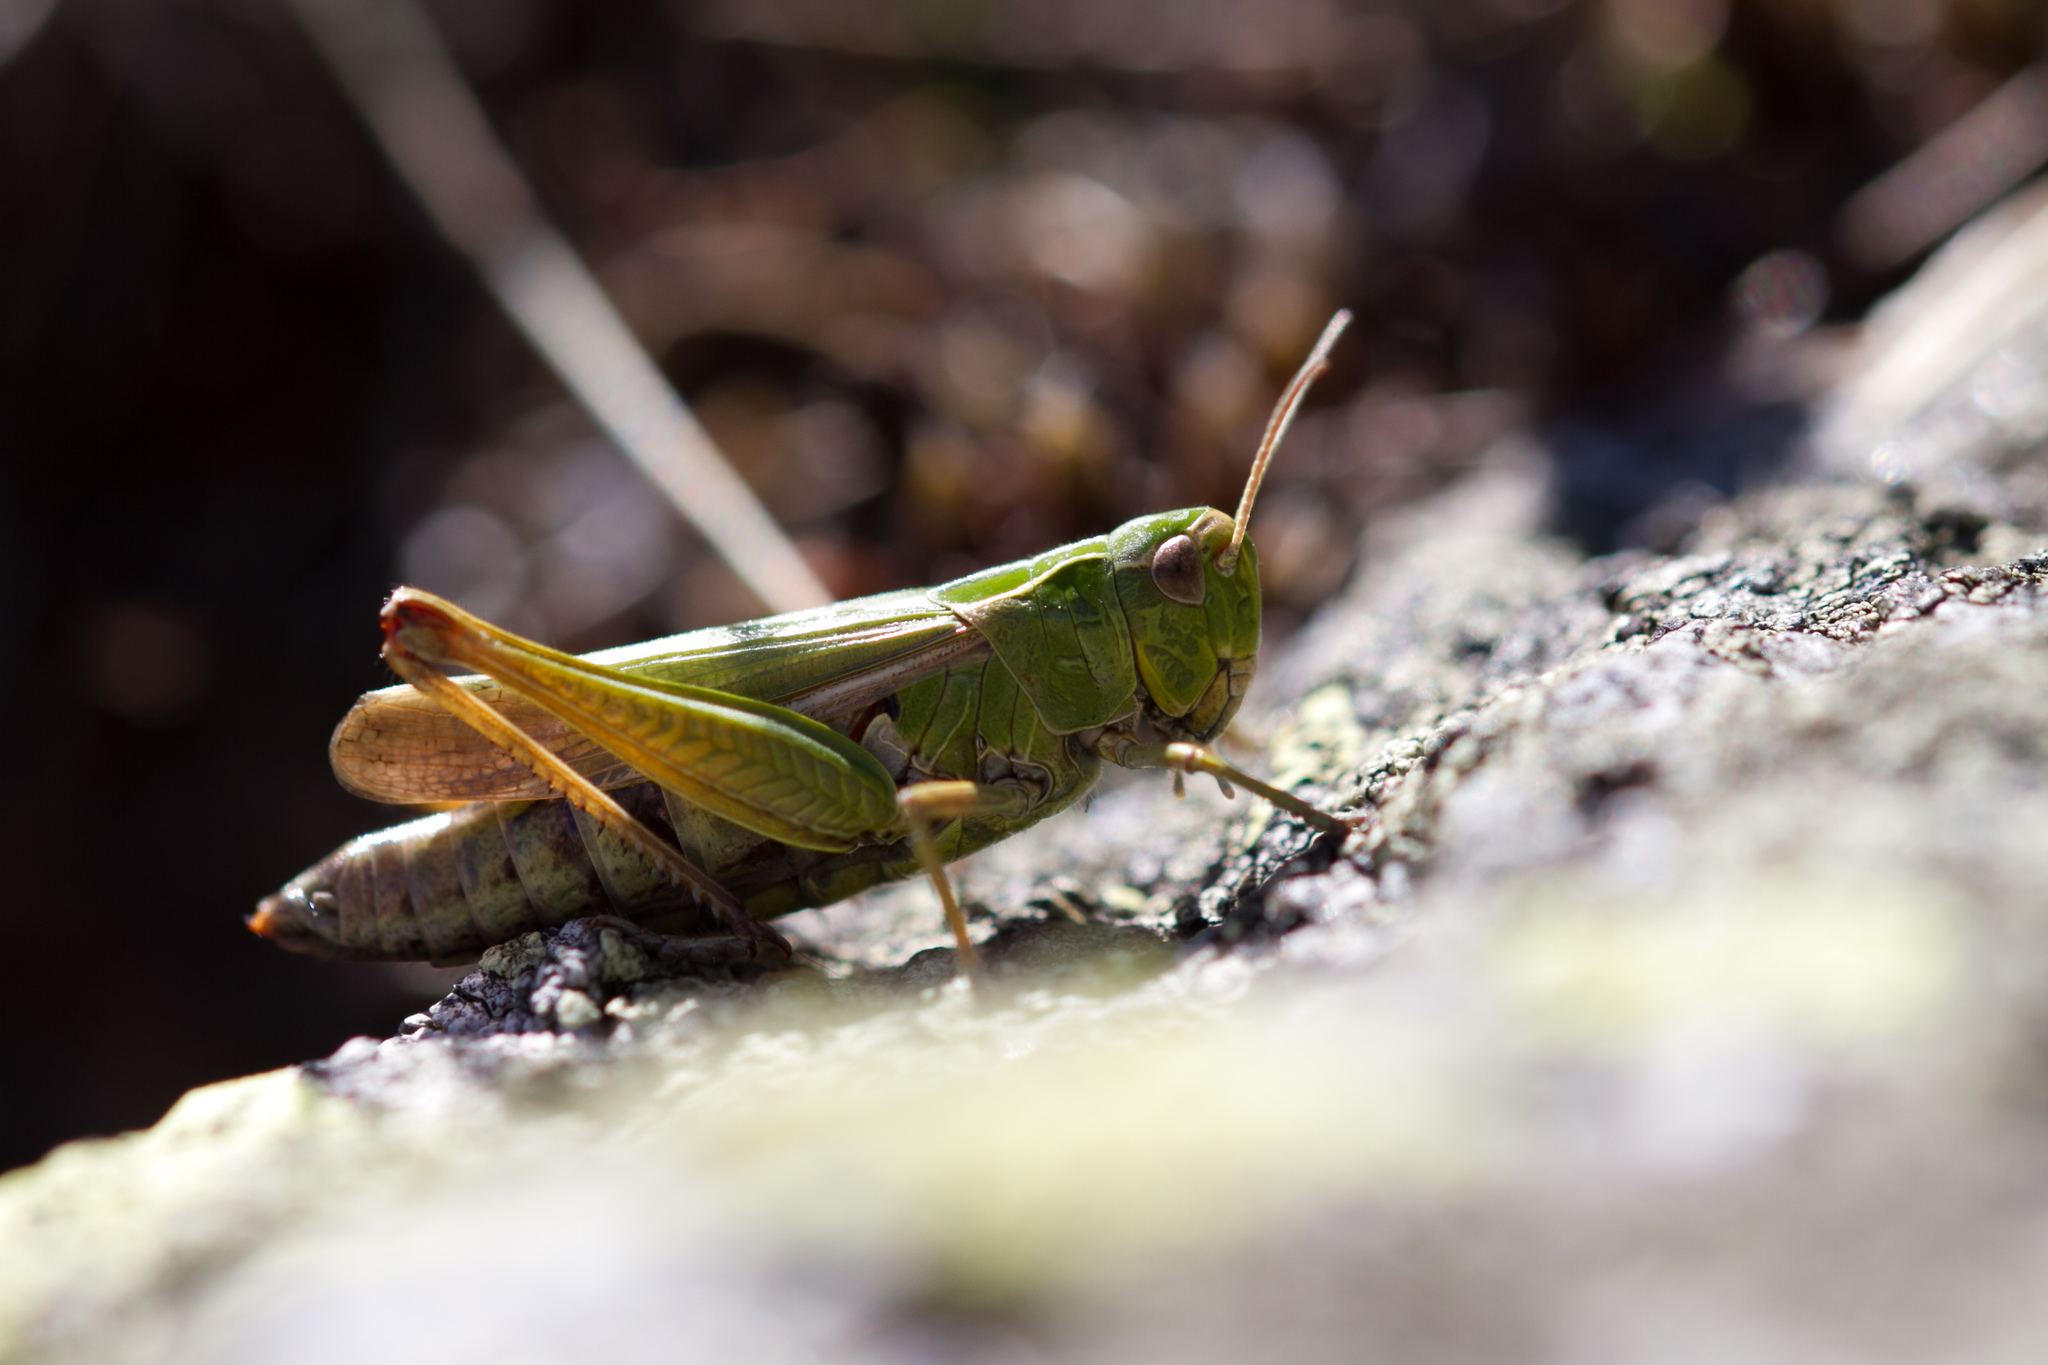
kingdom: Animalia
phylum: Arthropoda
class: Insecta
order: Orthoptera
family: Acrididae
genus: Omocestus
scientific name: Omocestus viridulus
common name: Common green grasshopper
